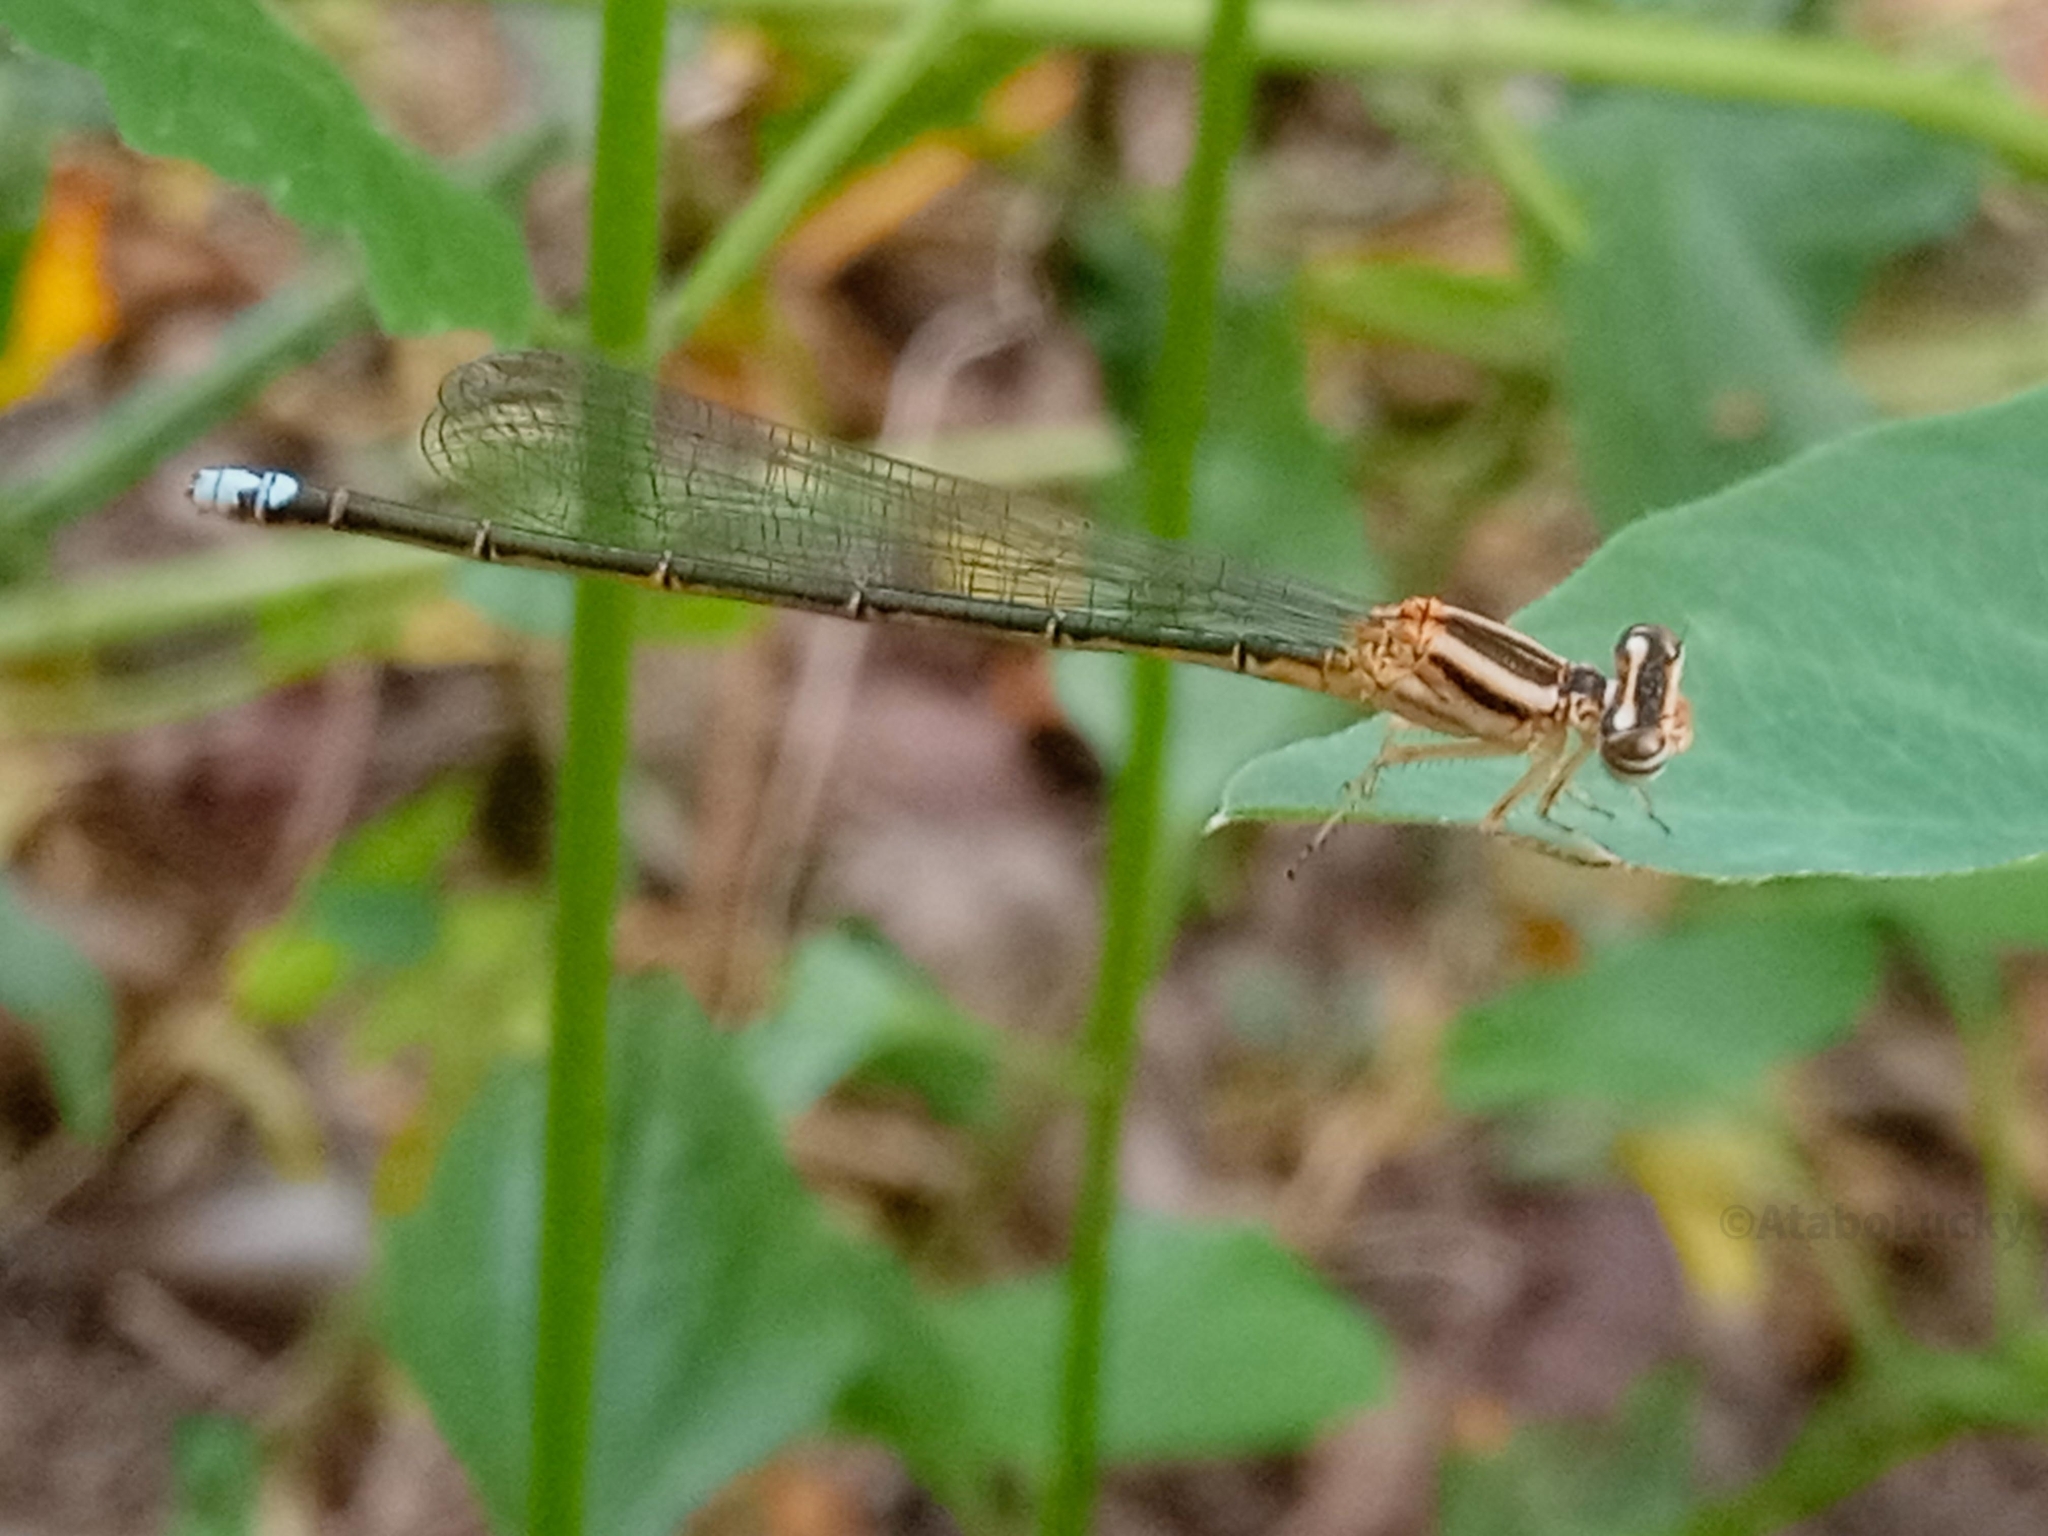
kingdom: Animalia
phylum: Arthropoda
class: Insecta
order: Odonata
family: Coenagrionidae
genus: Pseudagrion
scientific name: Pseudagrion salisburyense
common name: Slate sprite
